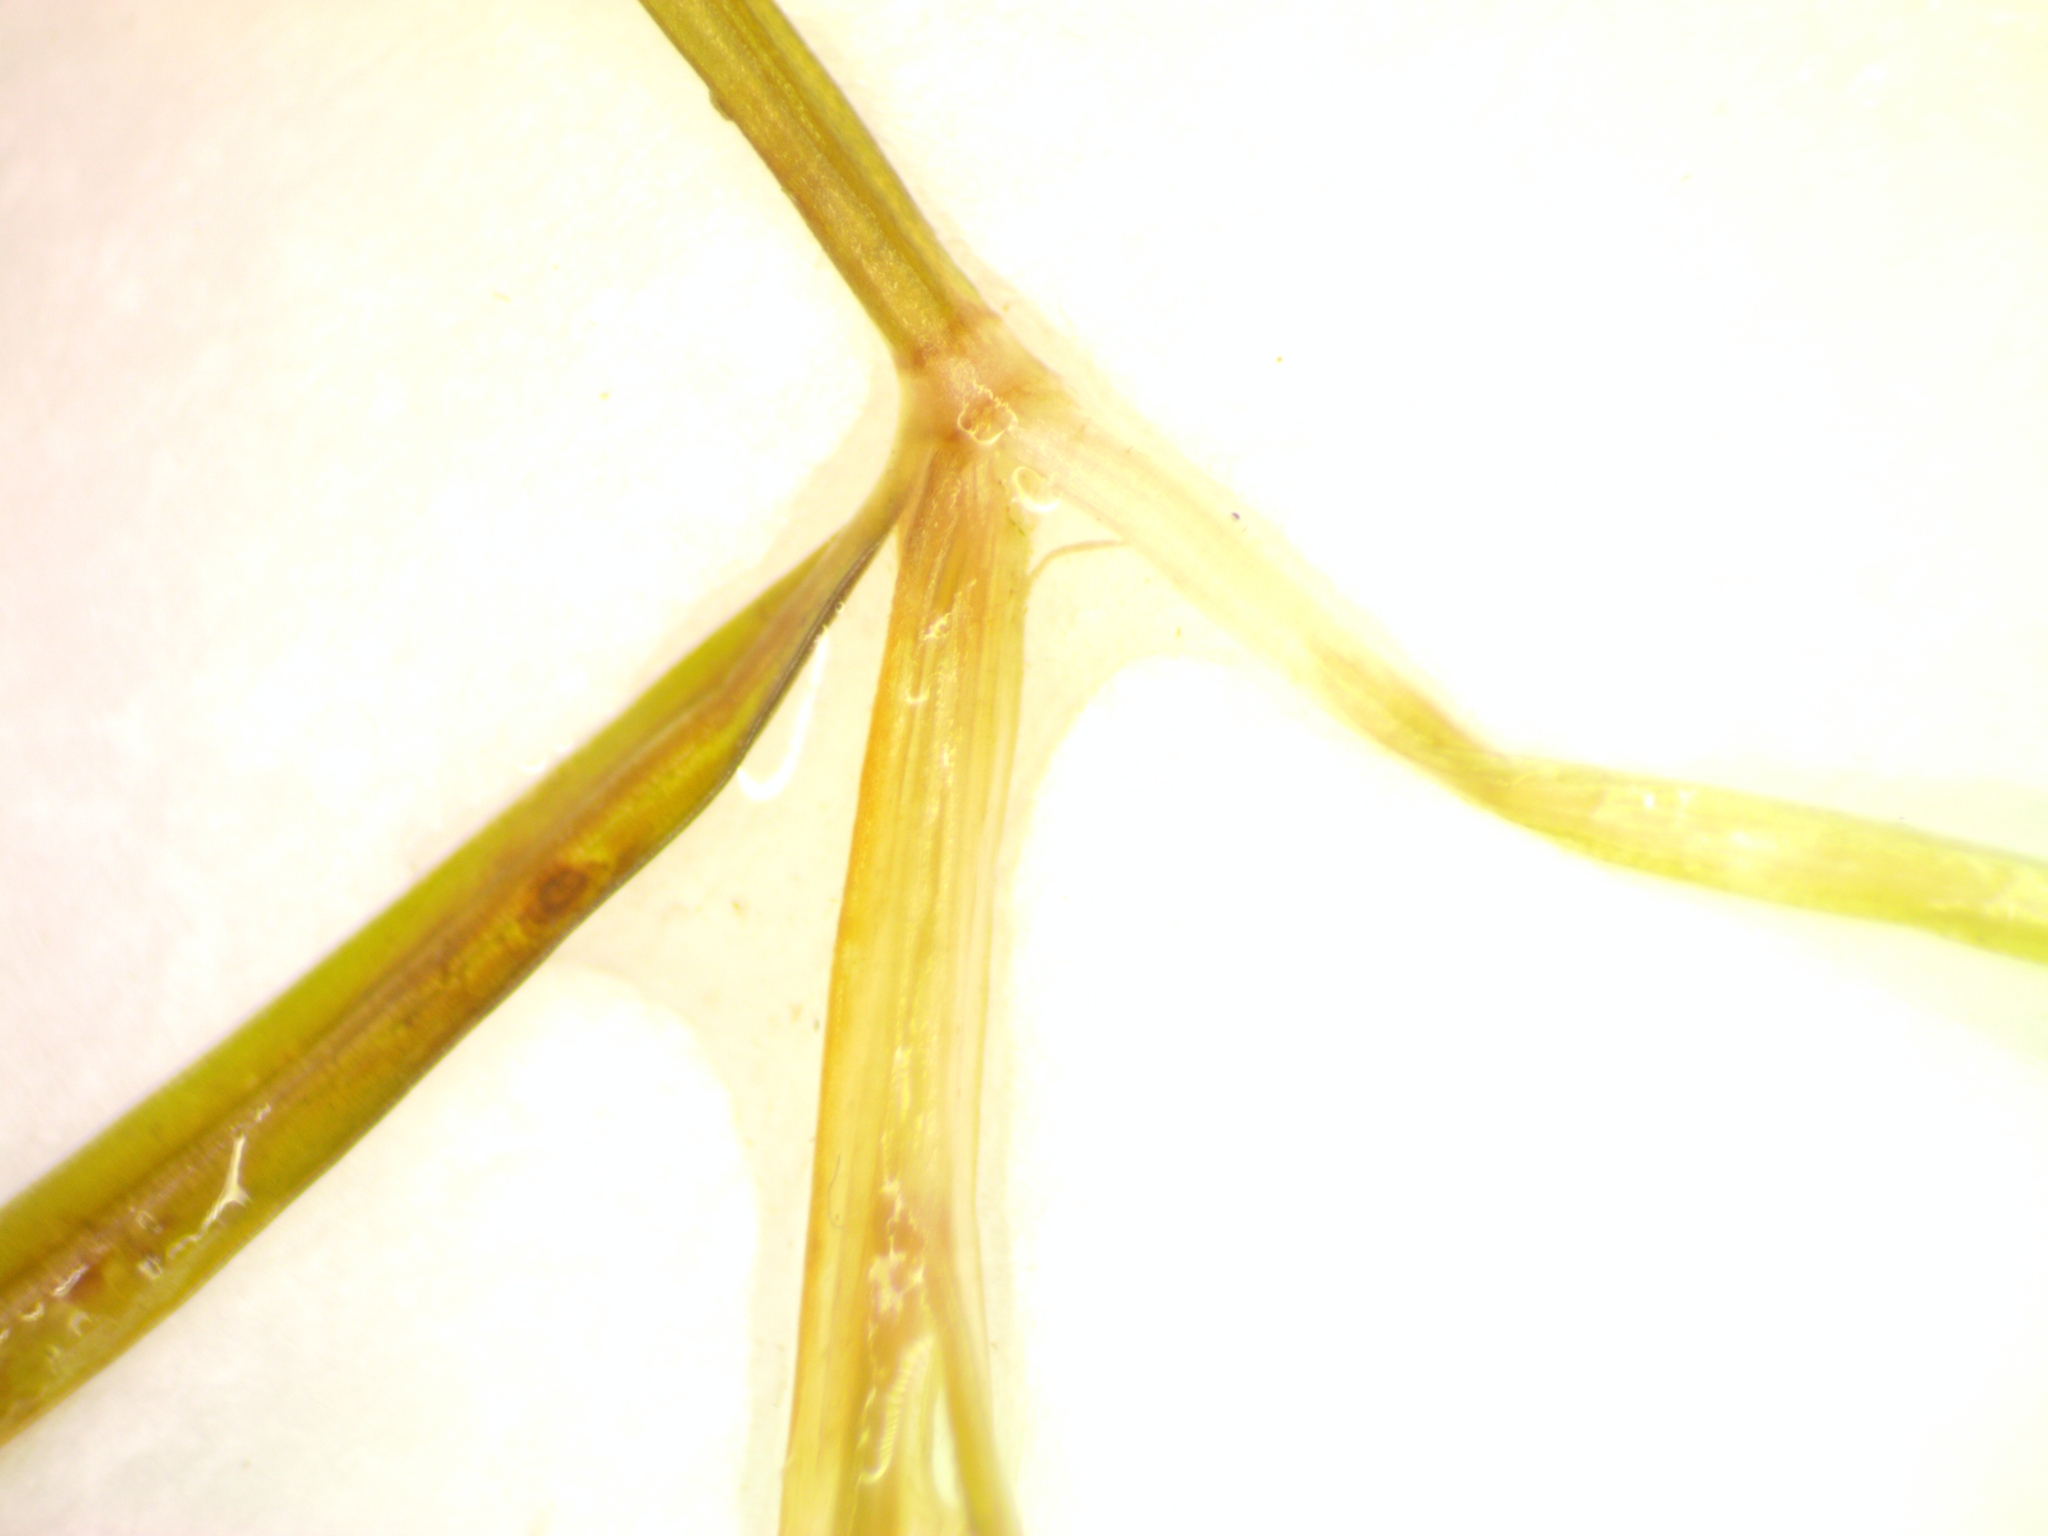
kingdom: Plantae
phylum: Tracheophyta
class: Liliopsida
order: Alismatales
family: Potamogetonaceae
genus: Potamogeton
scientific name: Potamogeton pusillus
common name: Lesser pondweed
